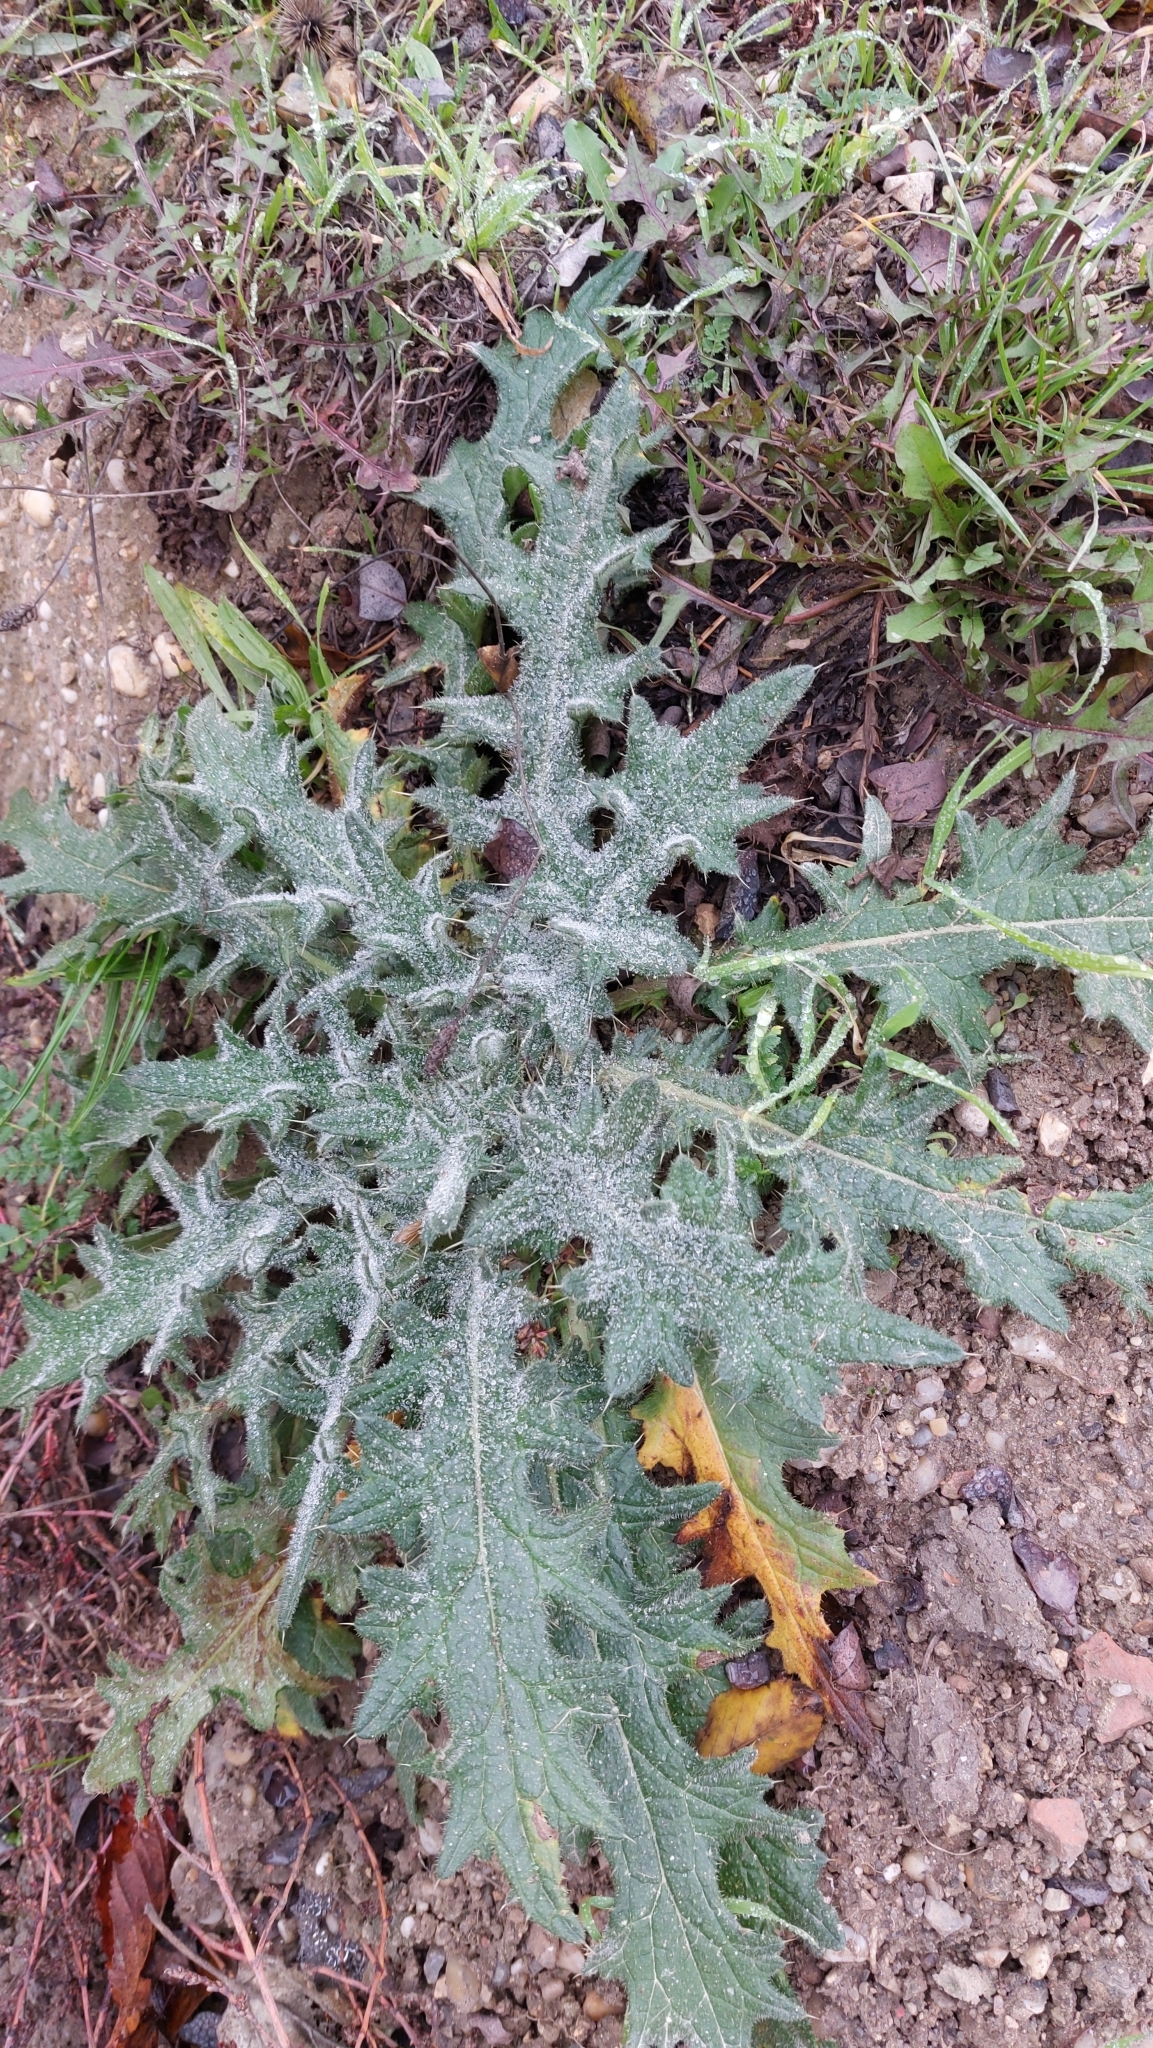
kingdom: Plantae
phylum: Tracheophyta
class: Magnoliopsida
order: Asterales
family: Asteraceae
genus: Cirsium
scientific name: Cirsium vulgare
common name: Bull thistle
